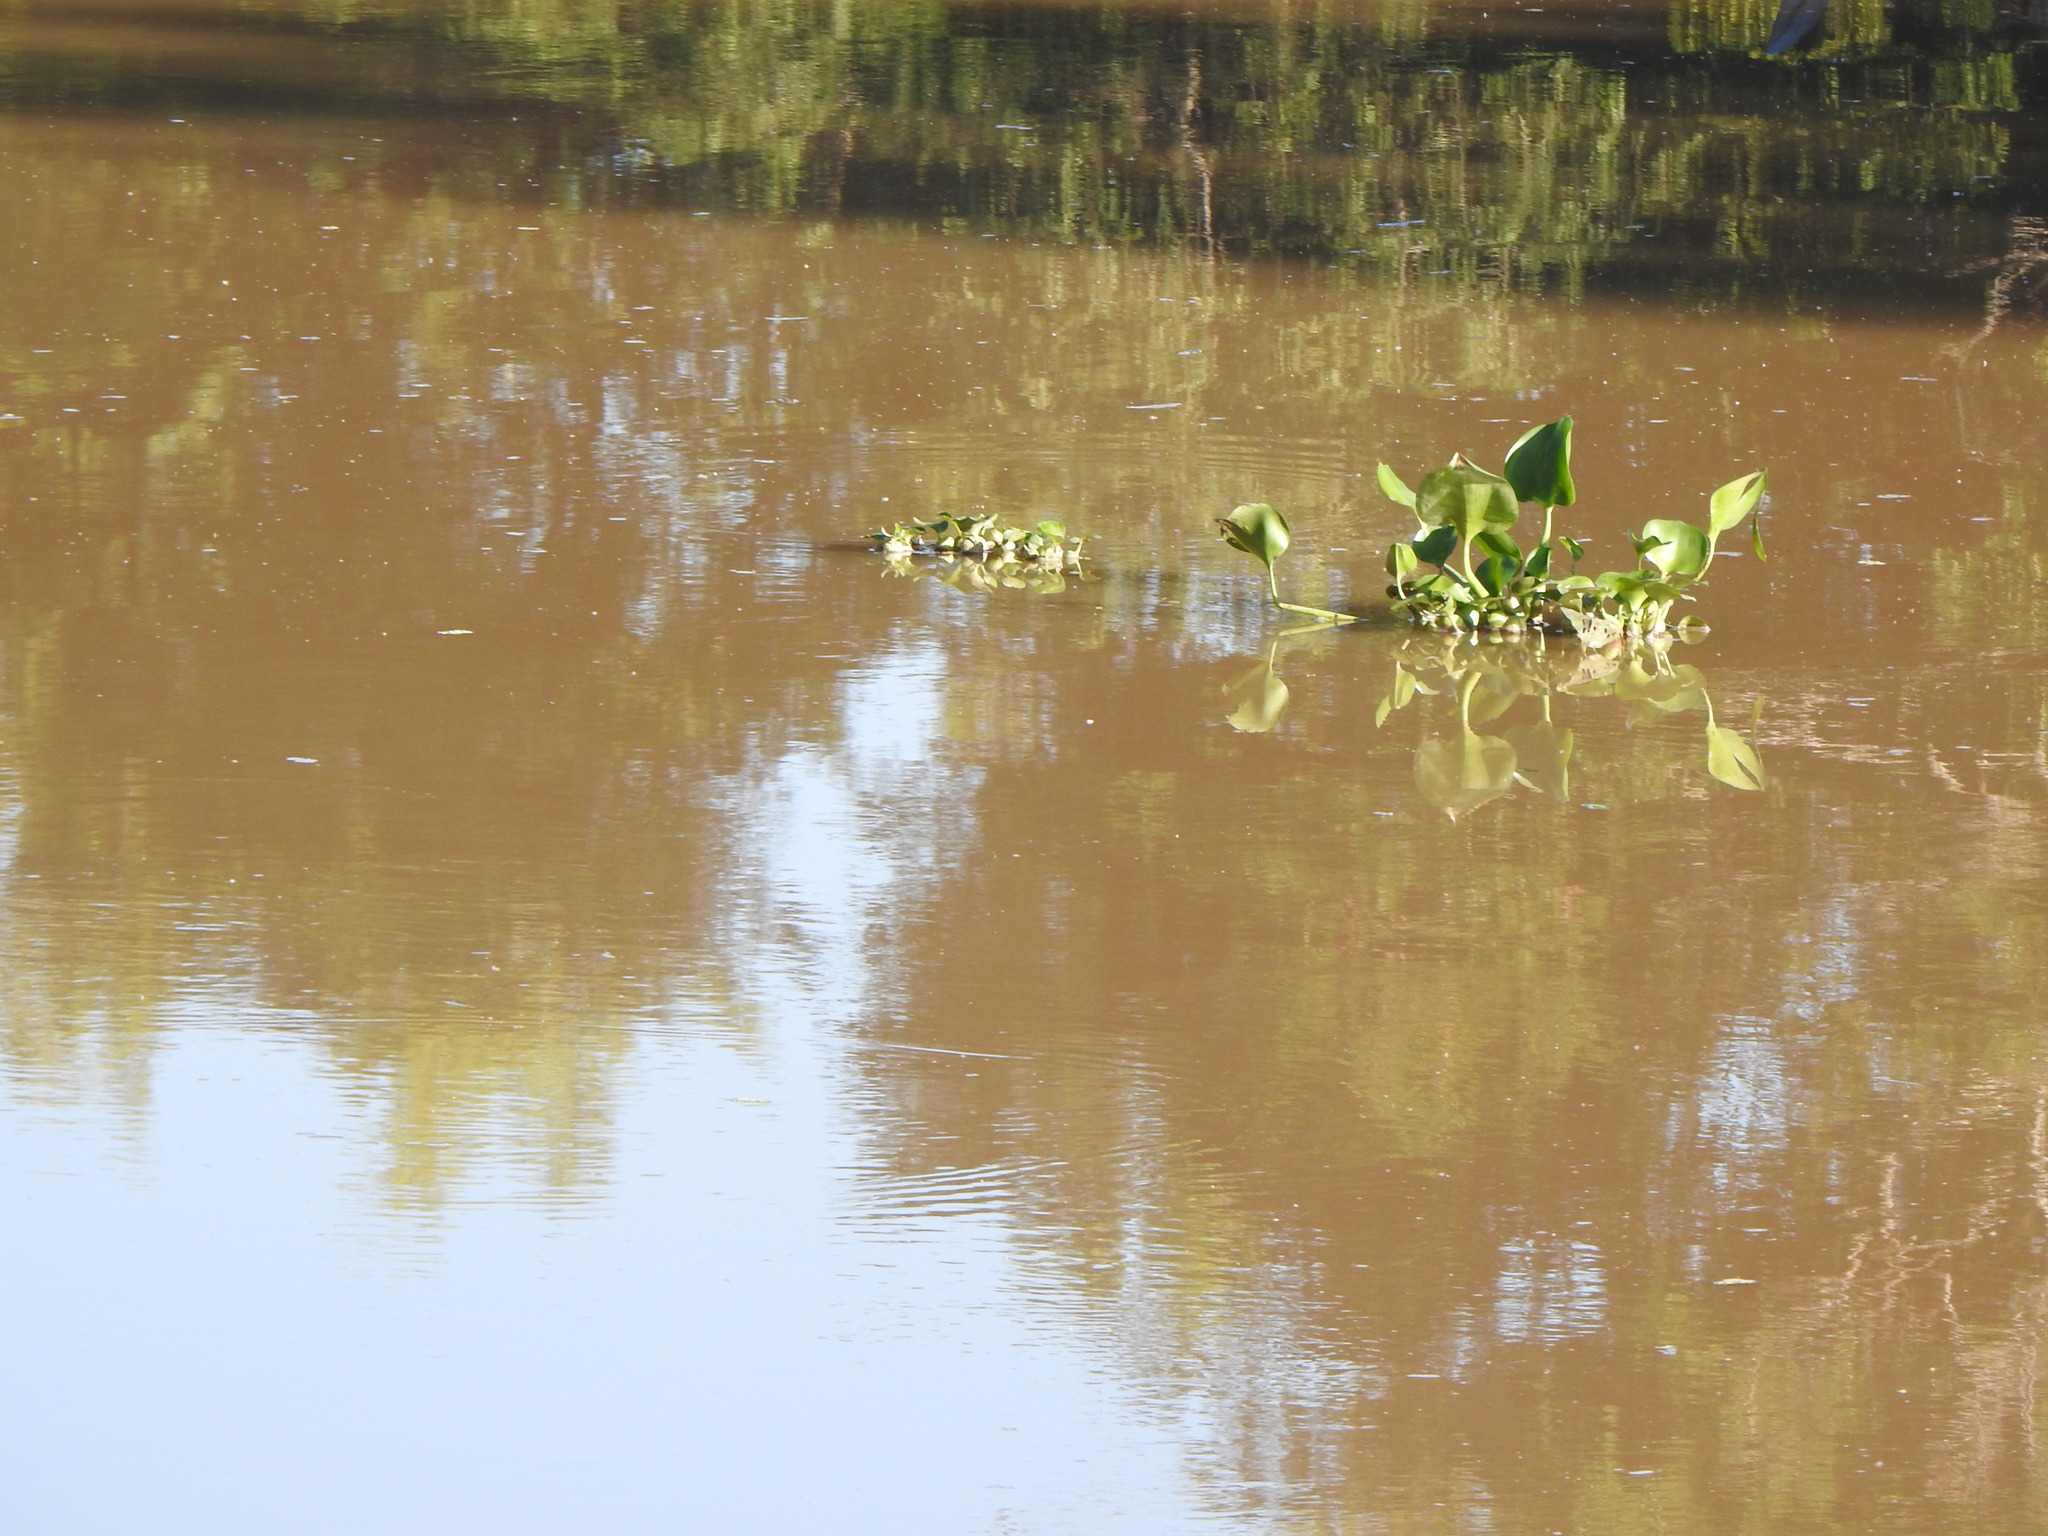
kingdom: Plantae
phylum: Tracheophyta
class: Liliopsida
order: Commelinales
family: Pontederiaceae
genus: Pontederia
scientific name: Pontederia crassipes
